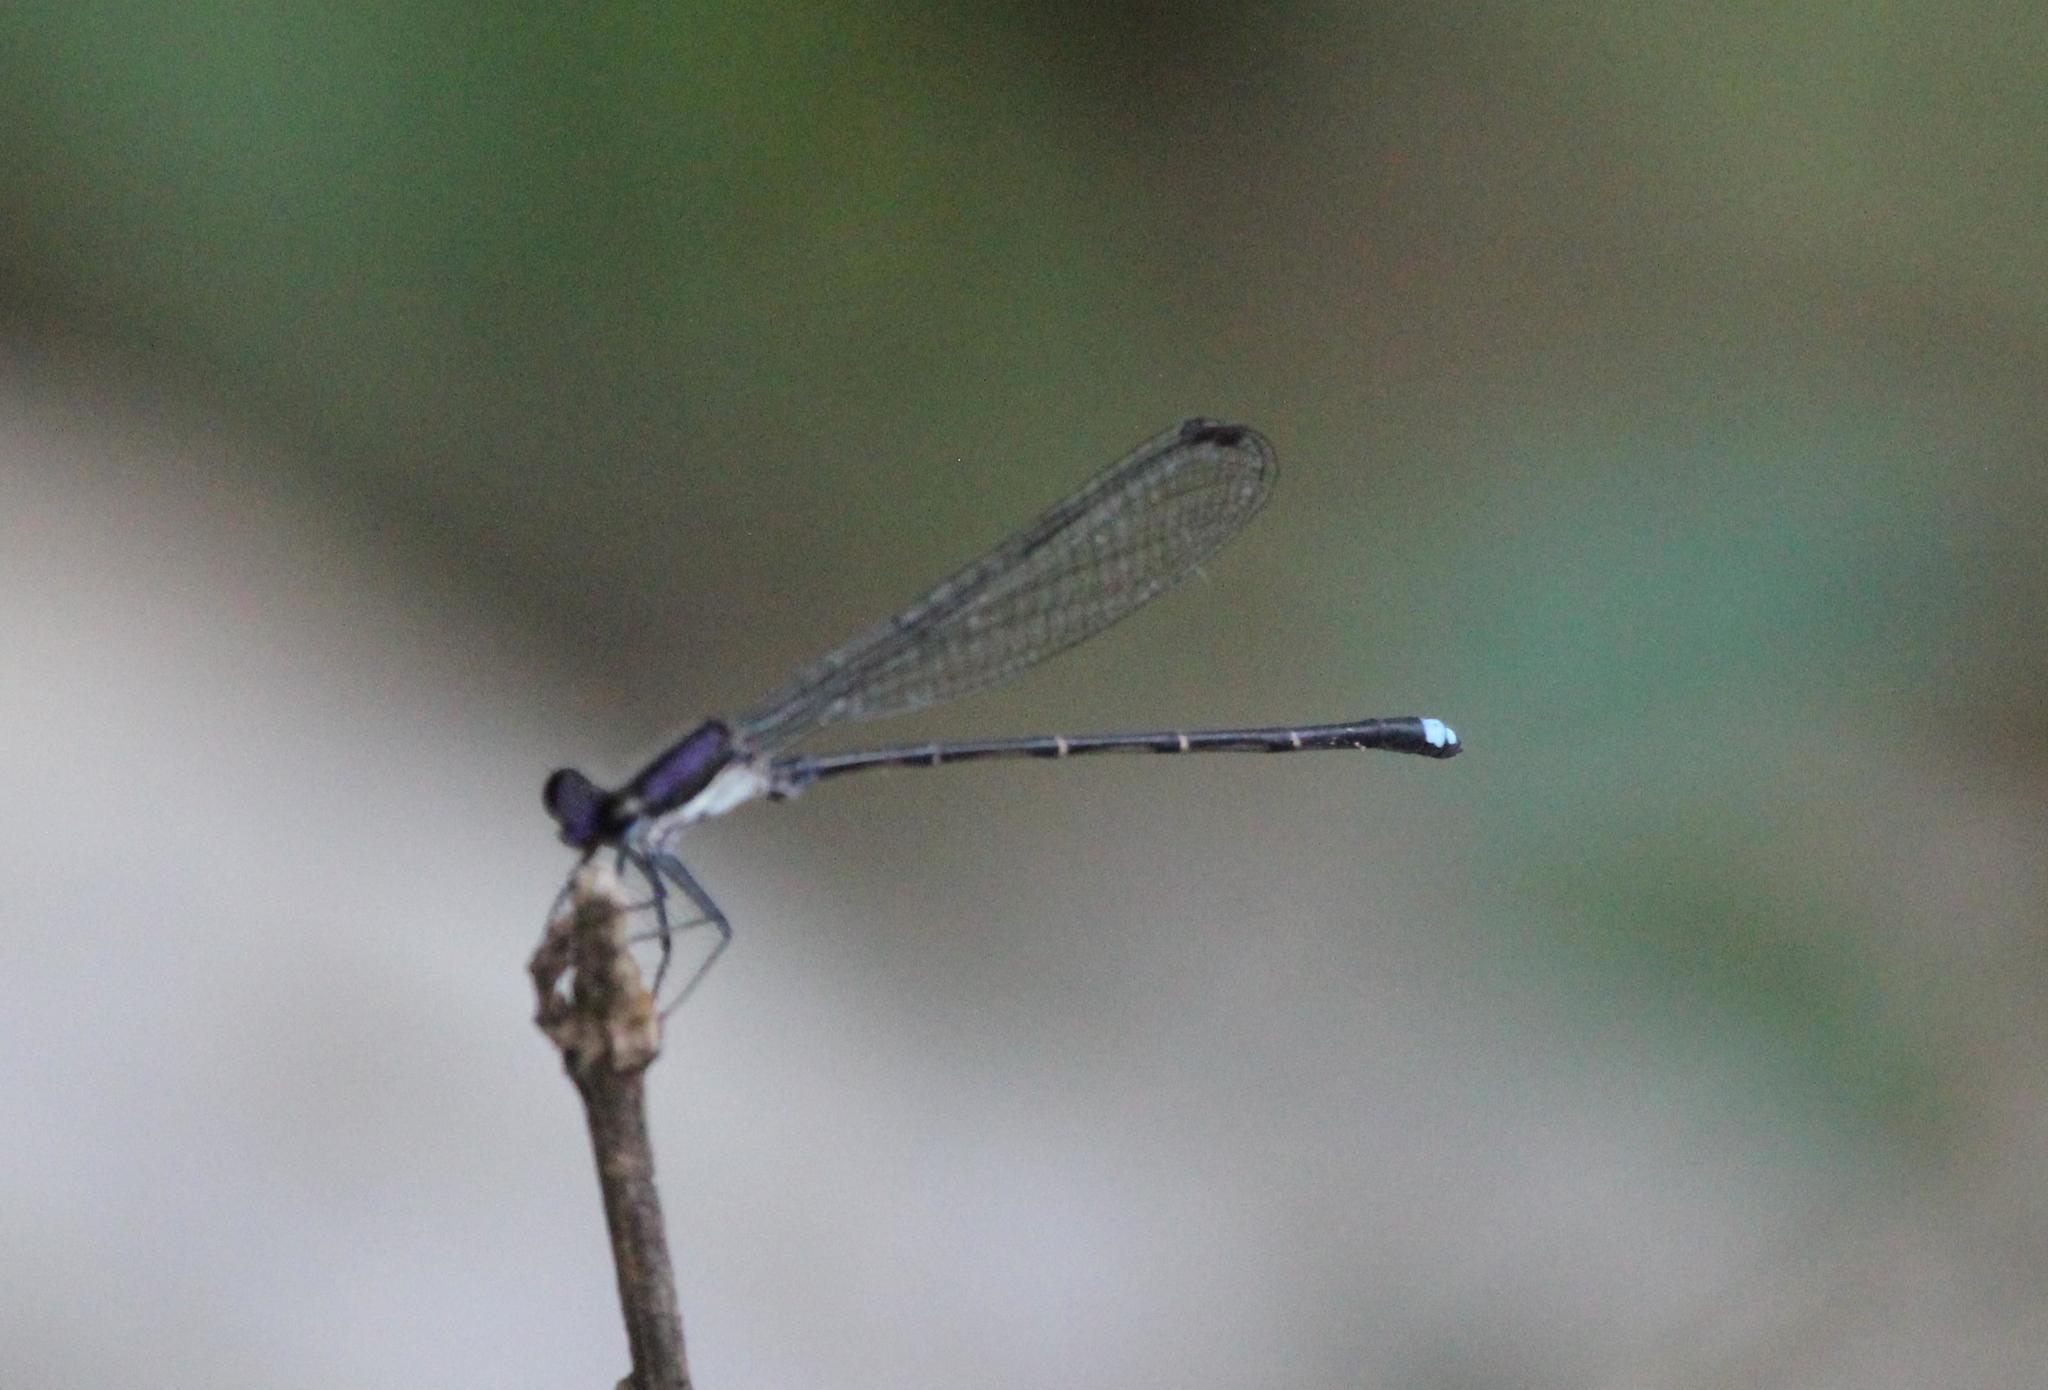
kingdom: Animalia
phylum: Arthropoda
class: Insecta
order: Odonata
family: Coenagrionidae
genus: Argia
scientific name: Argia tibialis
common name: Blue-tipped dancer
